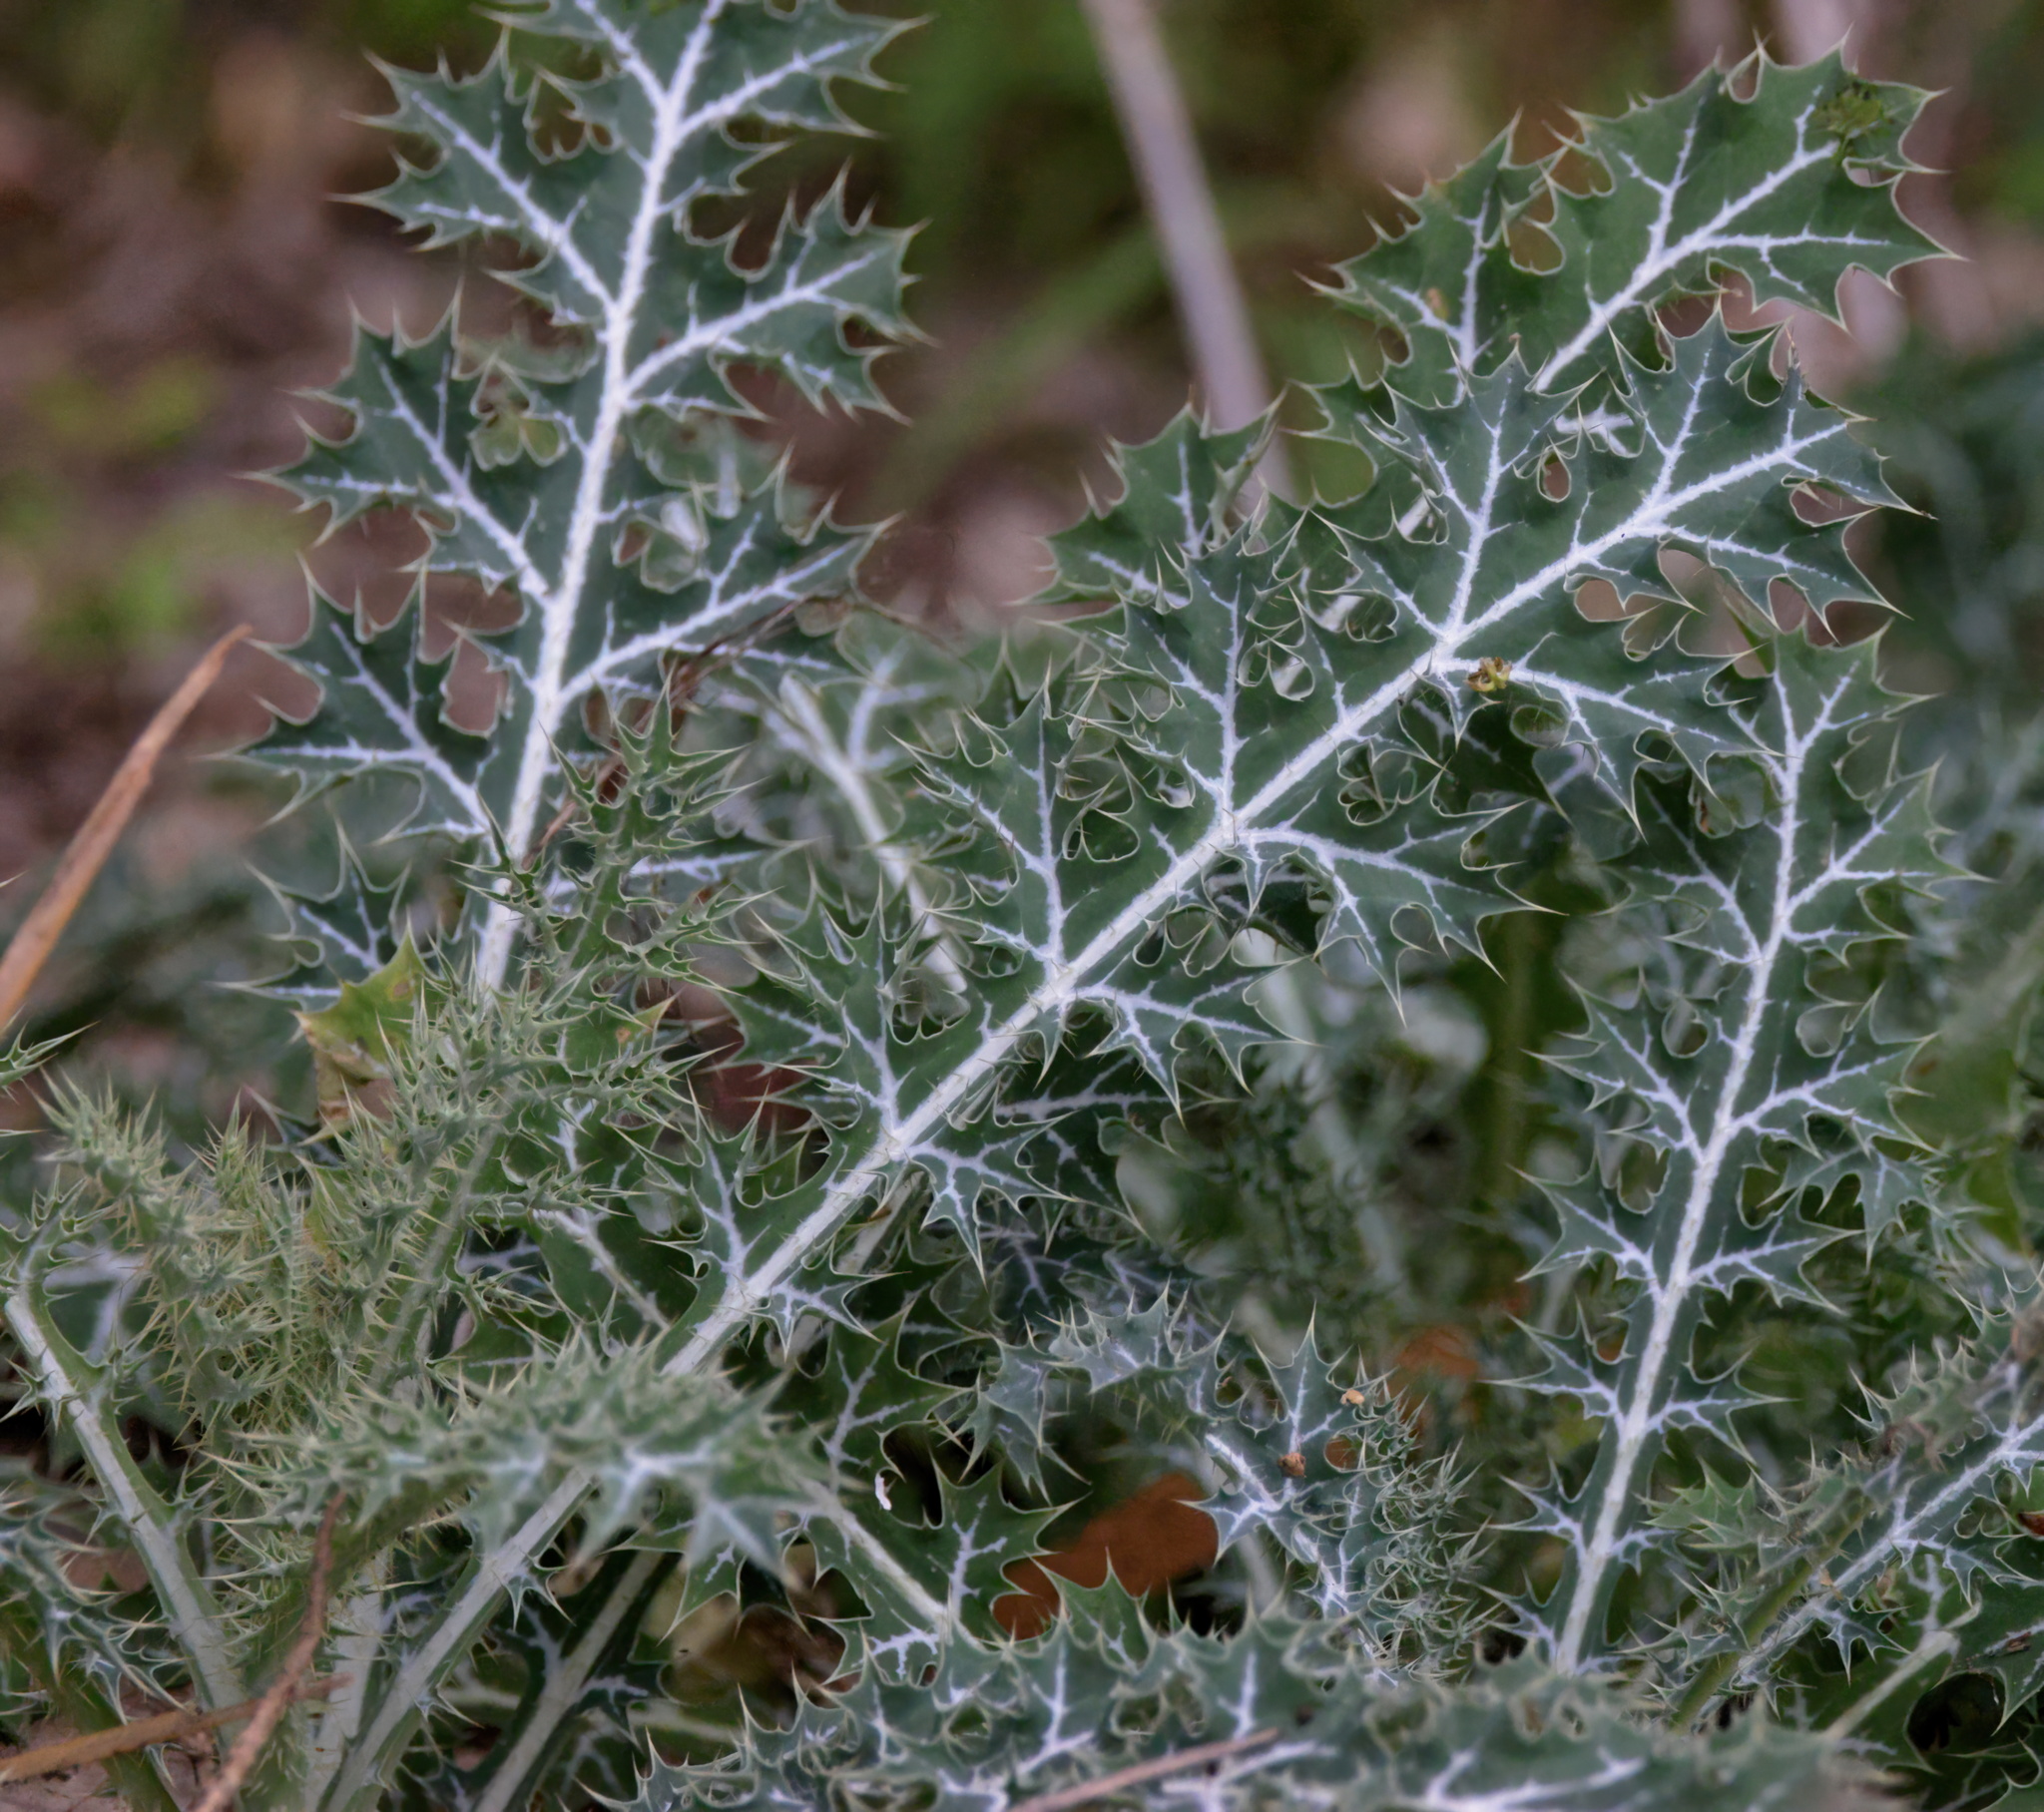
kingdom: Plantae
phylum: Tracheophyta
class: Magnoliopsida
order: Ranunculales
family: Papaveraceae
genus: Argemone
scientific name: Argemone aenea
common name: Golden prickly-poppy
